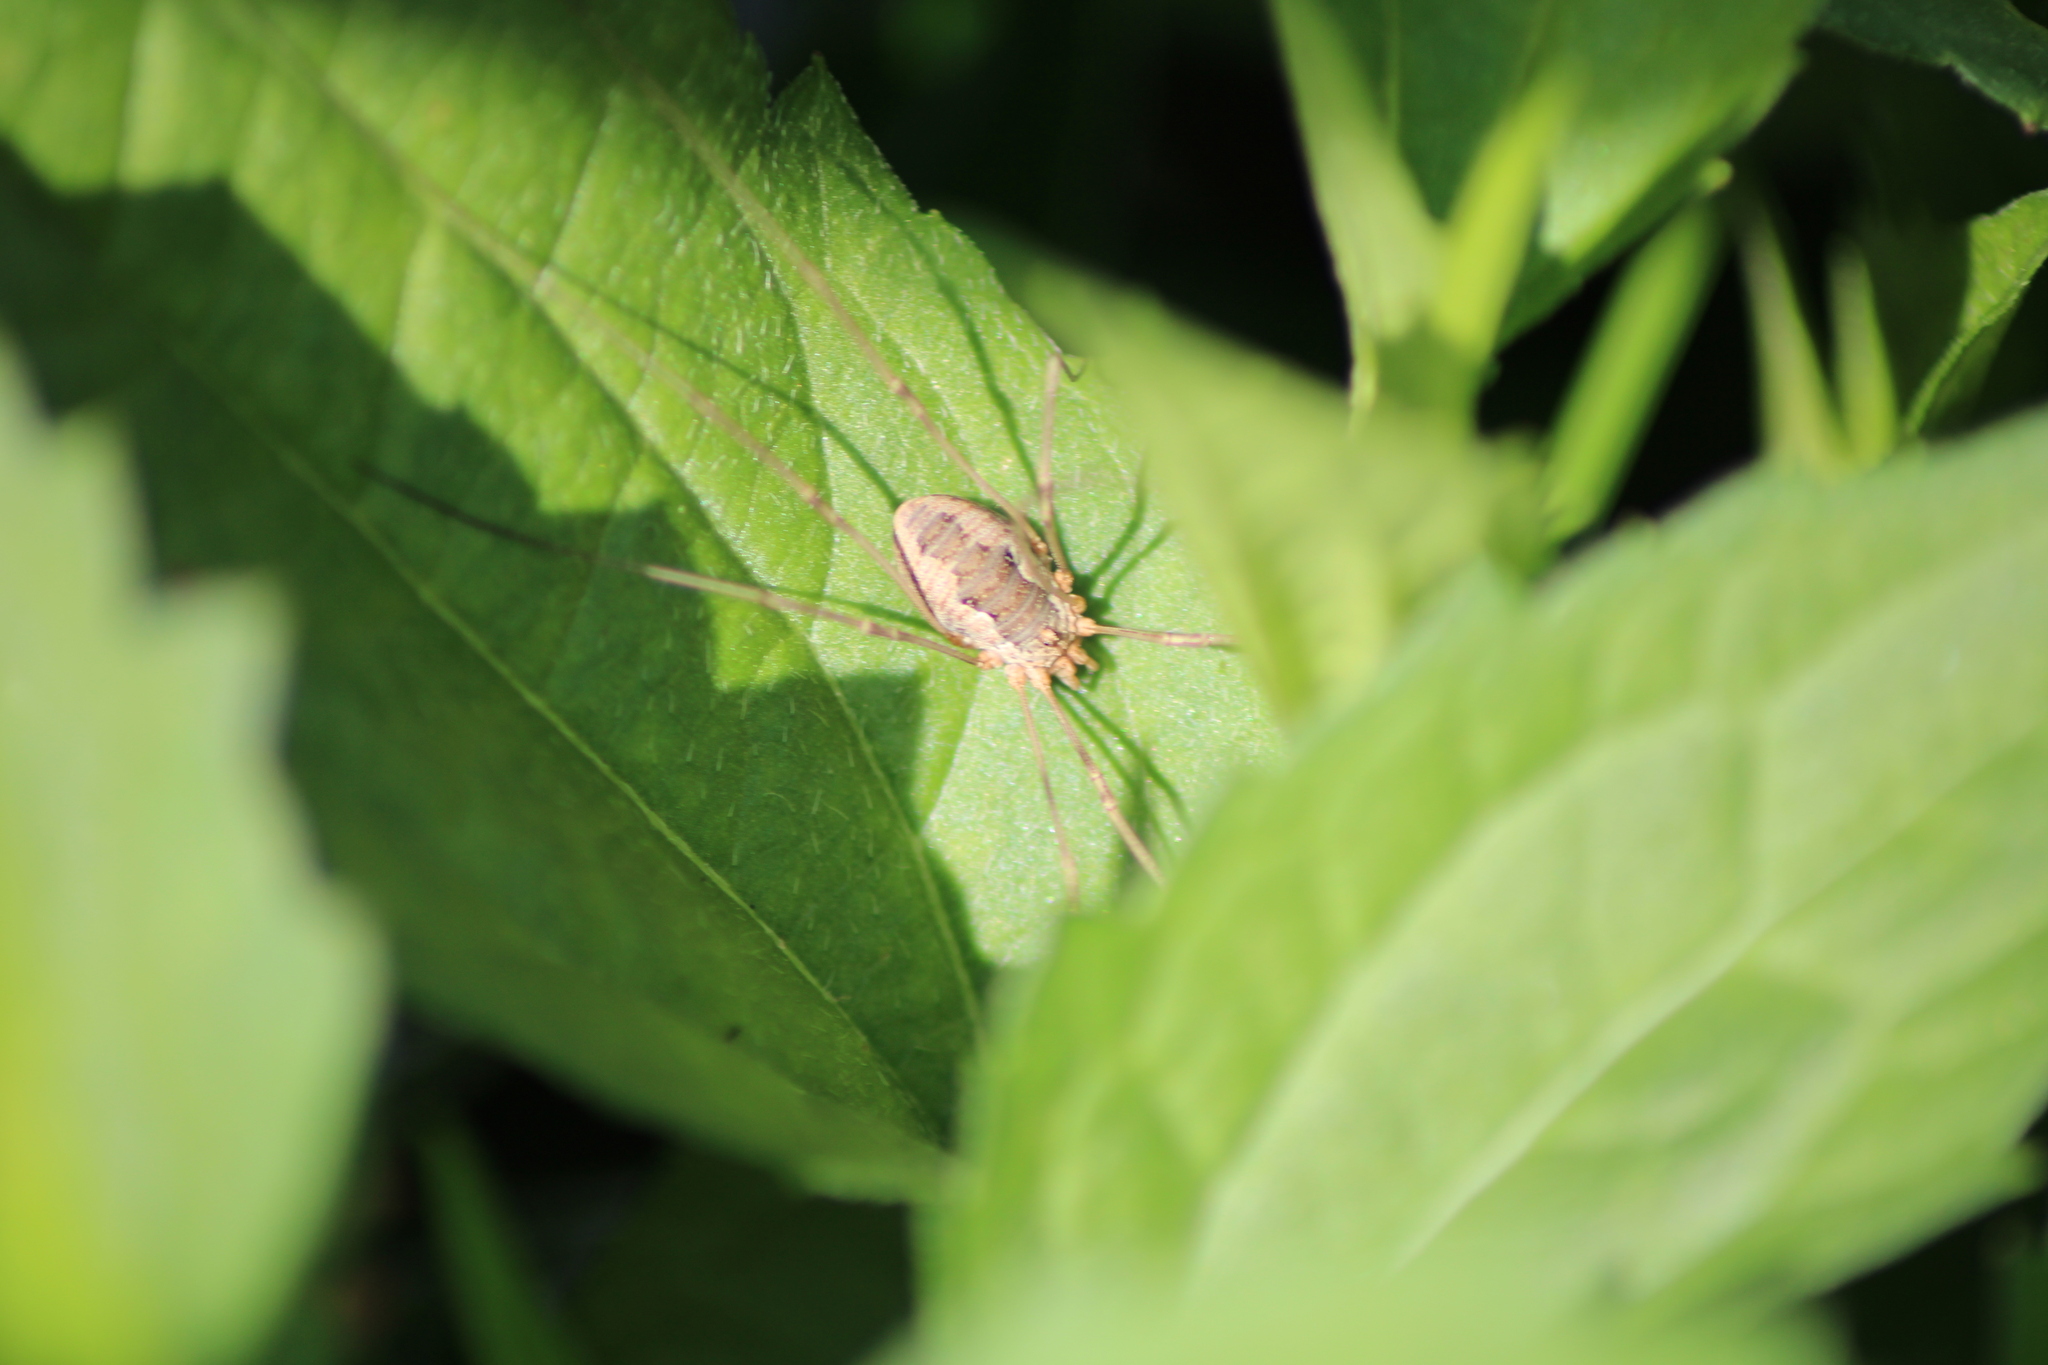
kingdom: Animalia
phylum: Arthropoda
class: Arachnida
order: Opiliones
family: Phalangiidae
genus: Phalangium
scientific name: Phalangium opilio
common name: Daddy longleg
